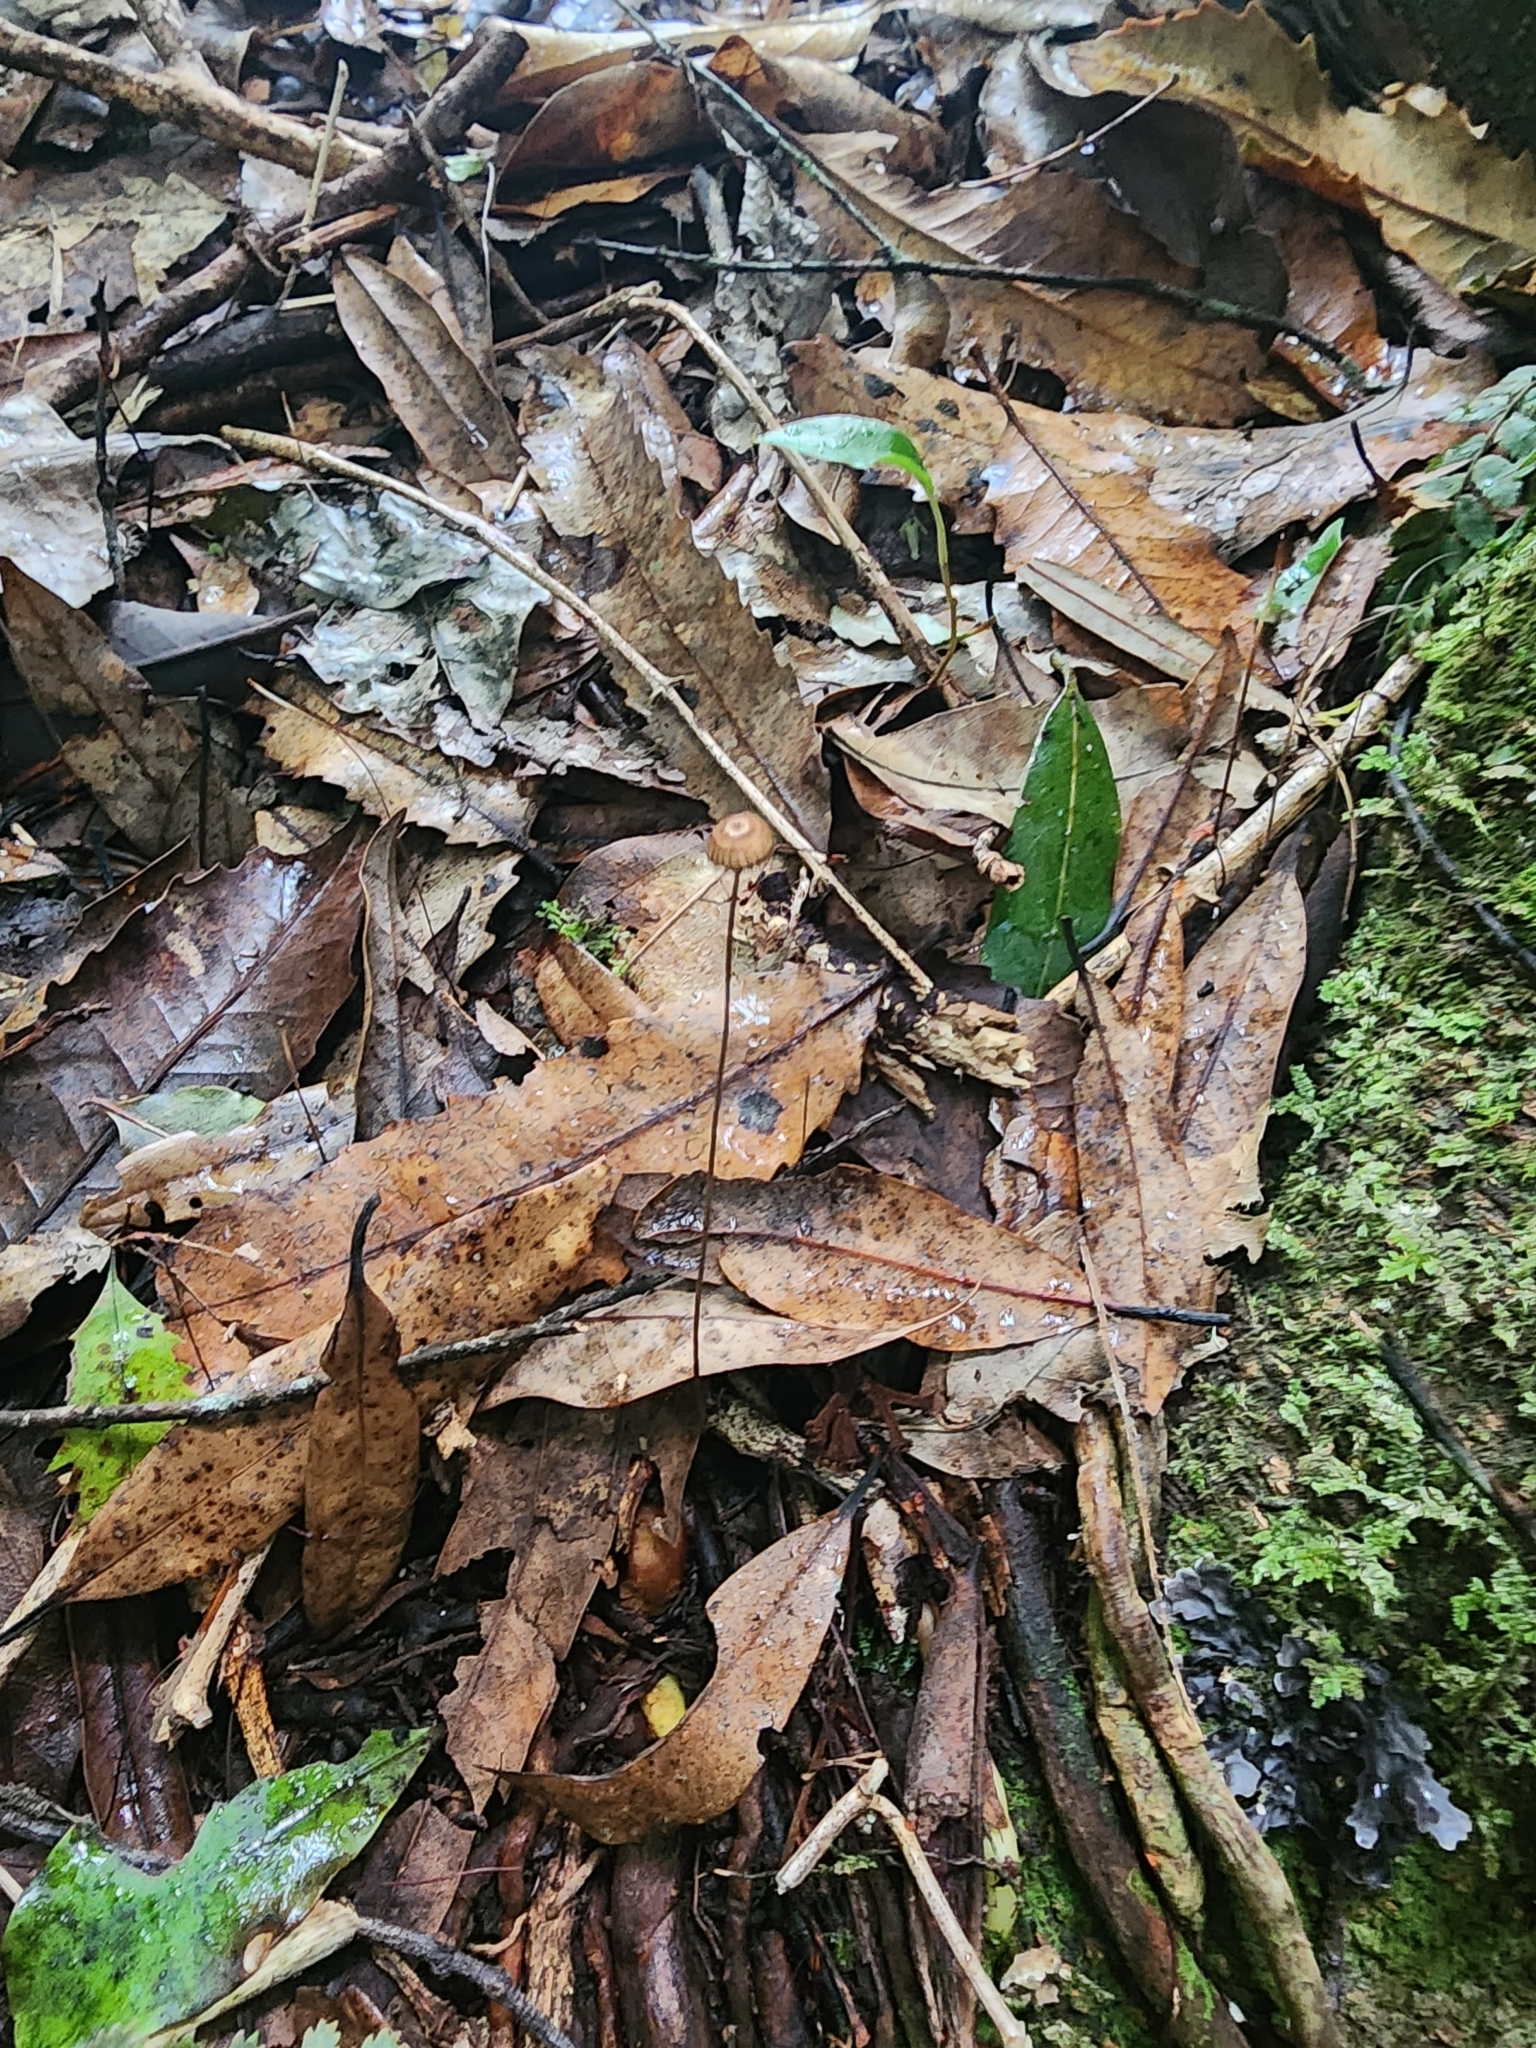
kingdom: Fungi
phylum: Basidiomycota
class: Agaricomycetes
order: Agaricales
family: Marasmiaceae
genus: Crinipellis
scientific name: Crinipellis procera
